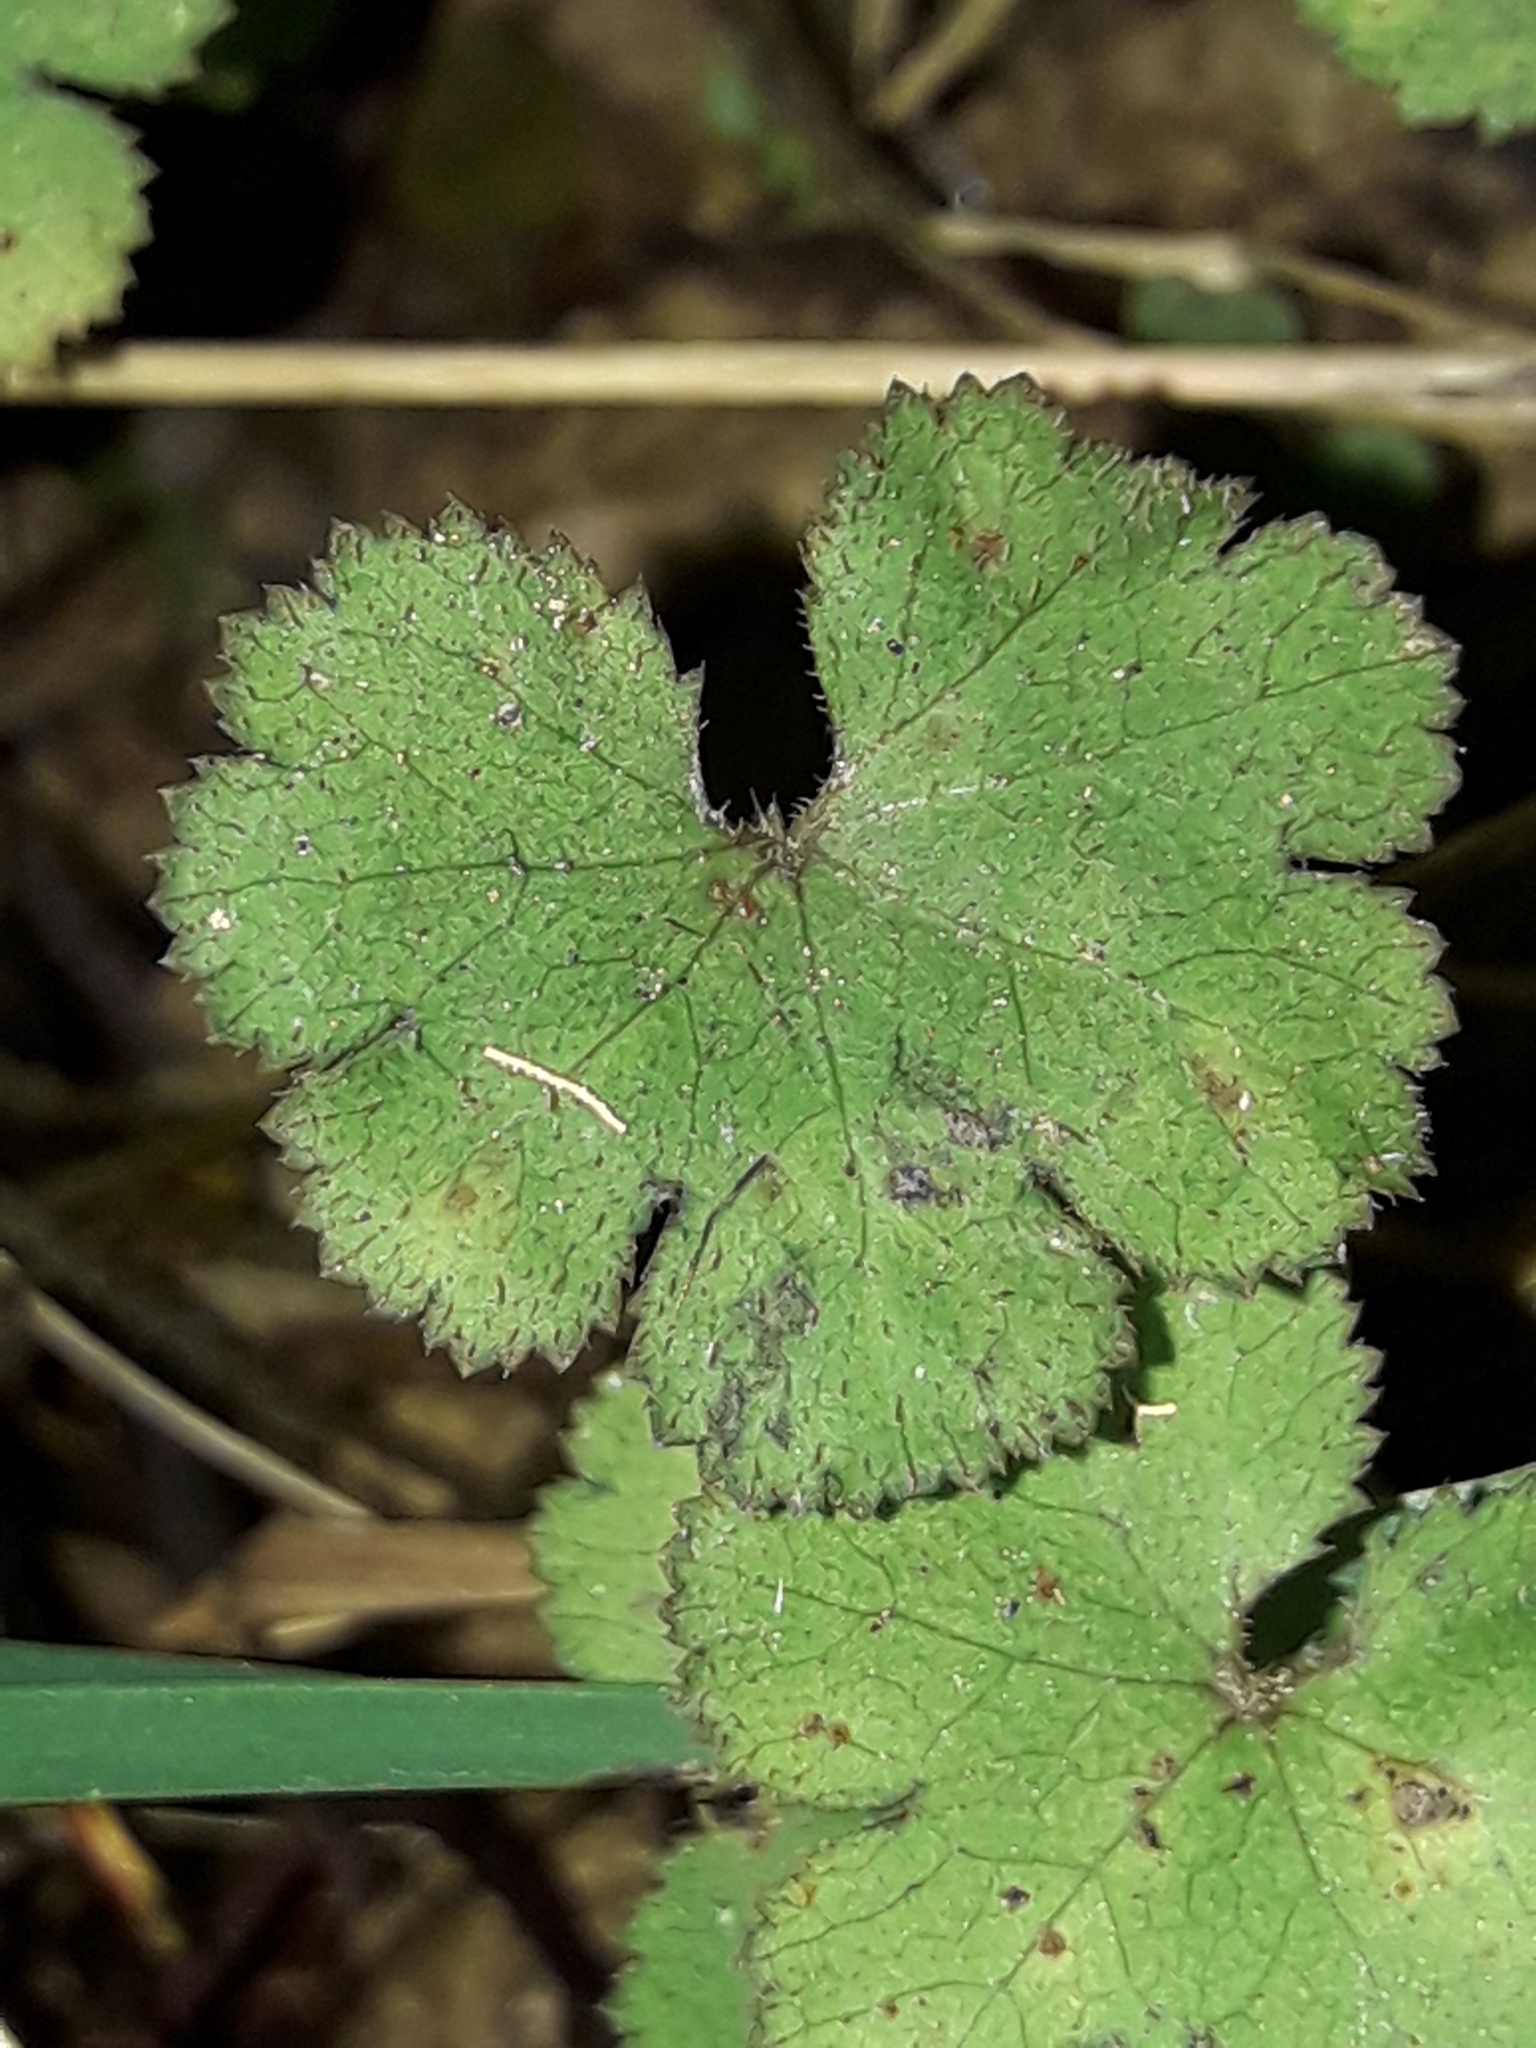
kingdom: Plantae
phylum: Tracheophyta
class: Magnoliopsida
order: Apiales
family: Araliaceae
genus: Hydrocotyle
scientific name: Hydrocotyle elongata
